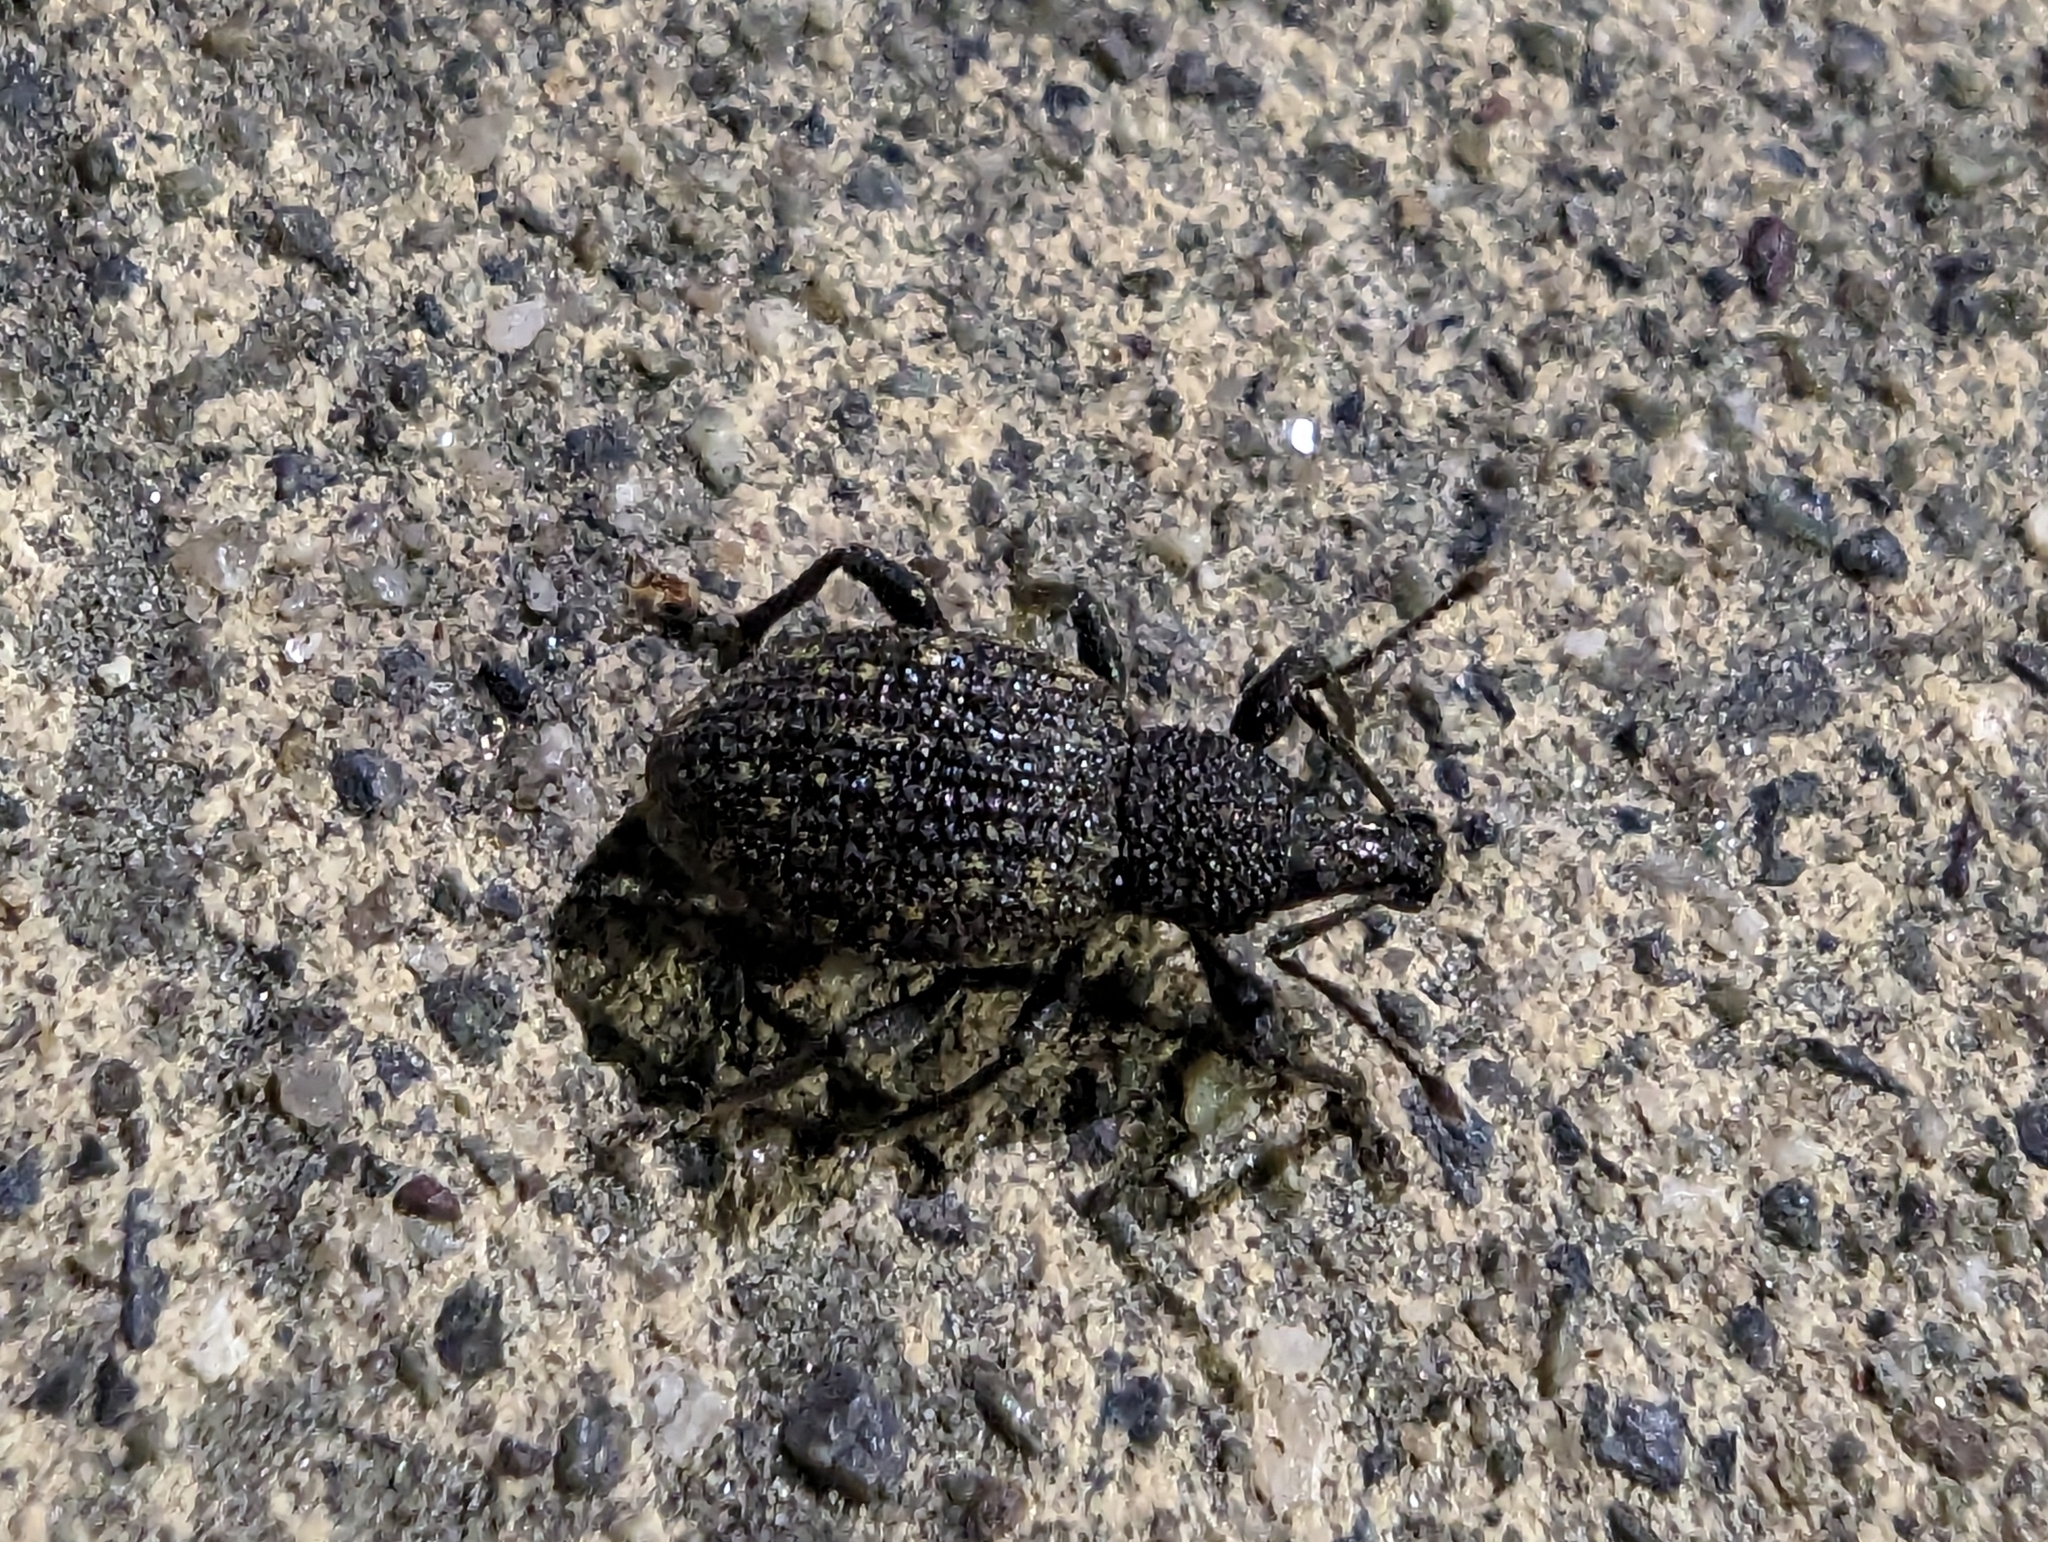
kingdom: Animalia
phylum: Arthropoda
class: Insecta
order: Coleoptera
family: Curculionidae
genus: Otiorhynchus
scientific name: Otiorhynchus sulcatus
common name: Black vine weevil
